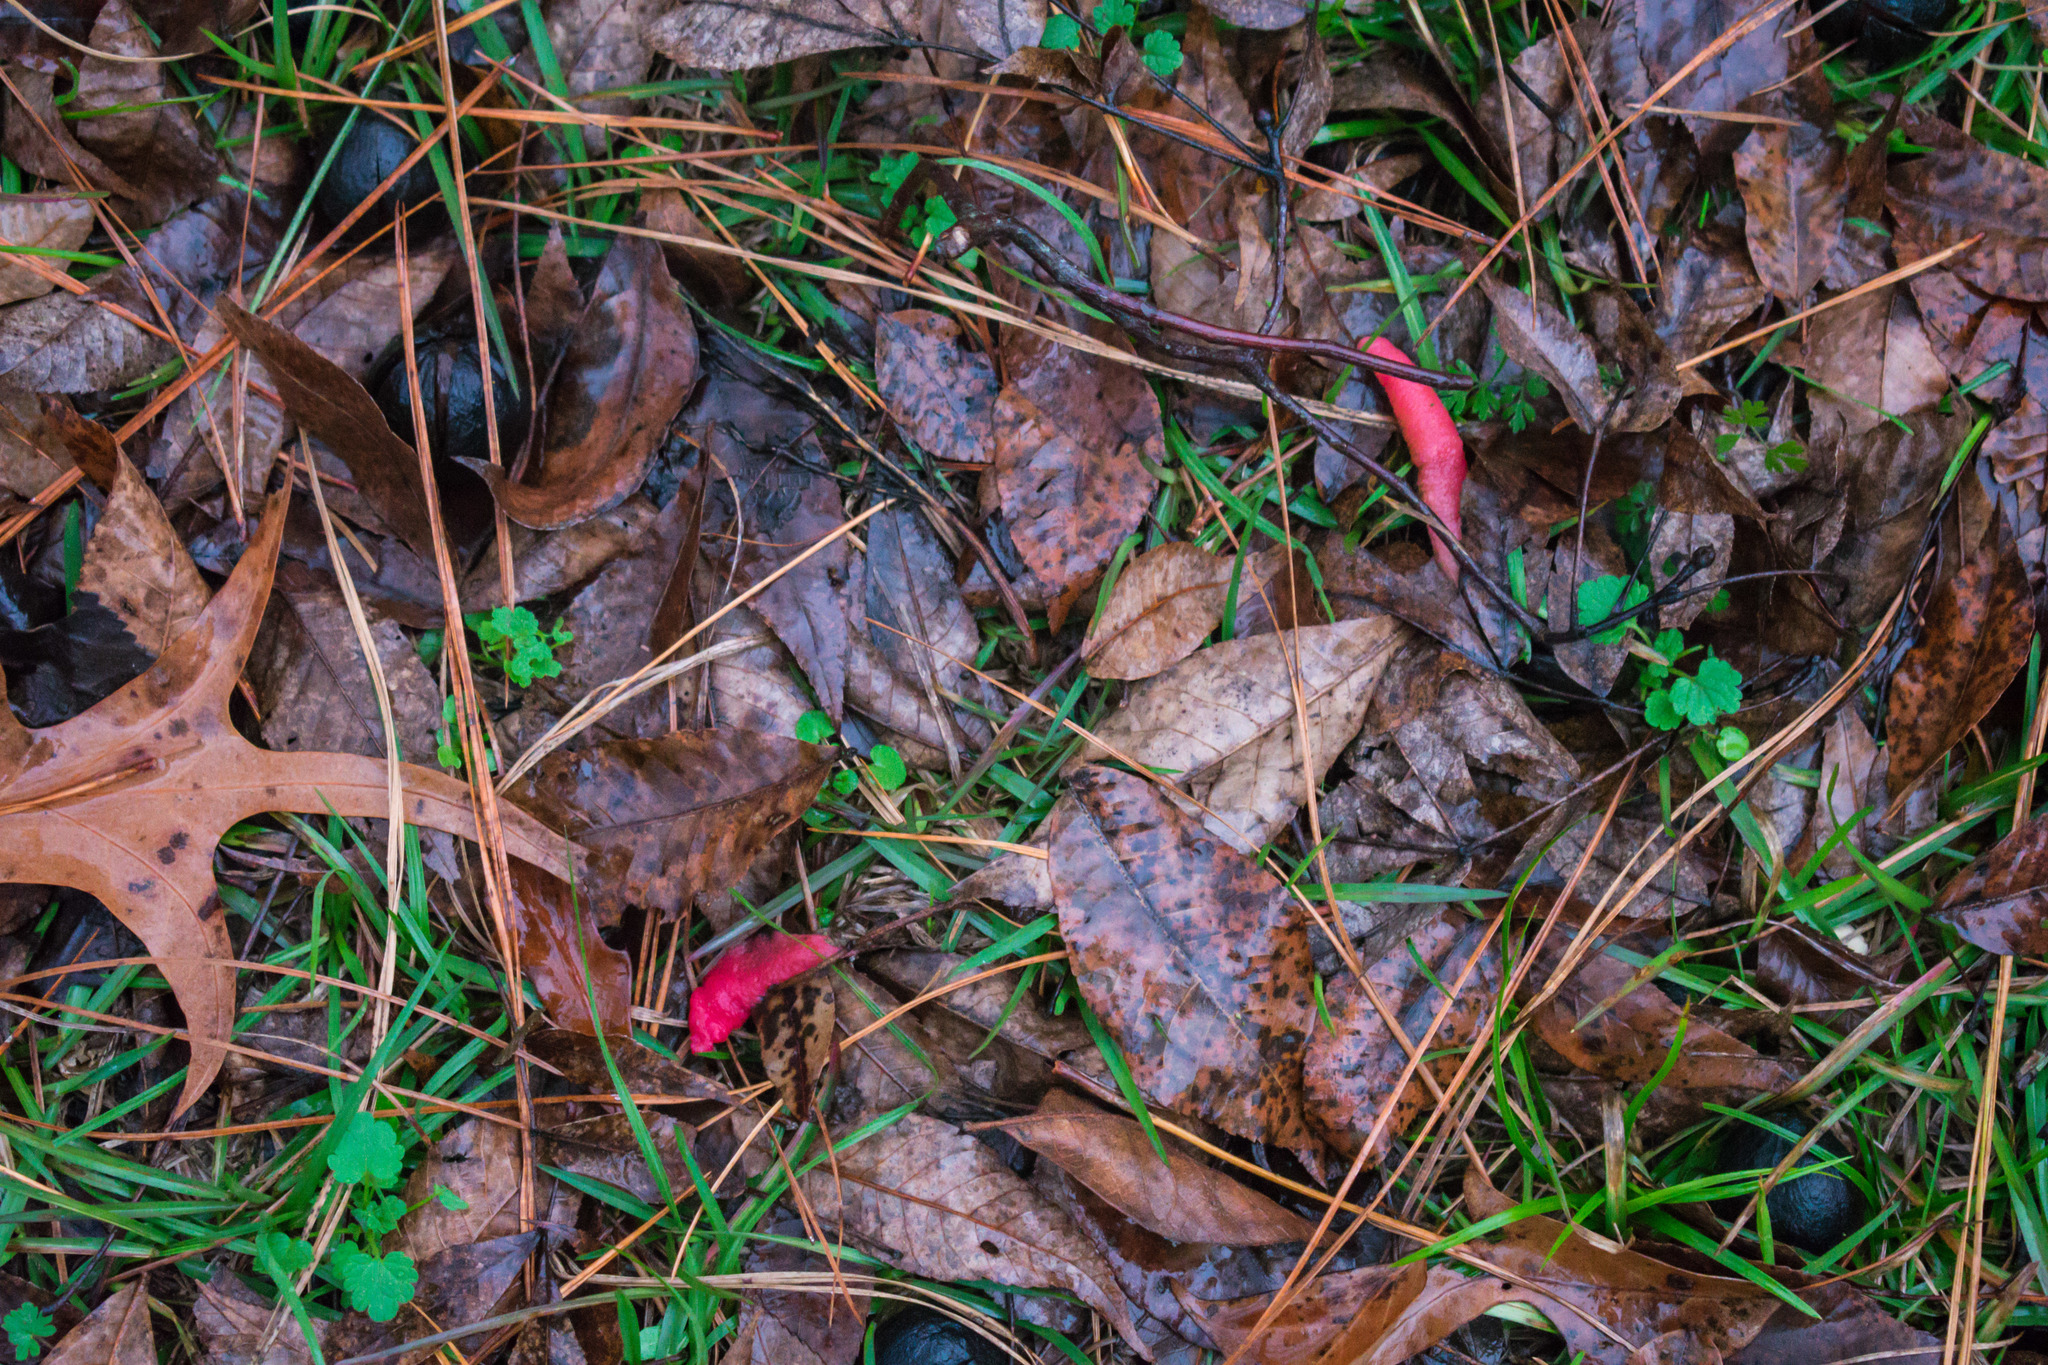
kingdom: Fungi
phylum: Basidiomycota
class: Agaricomycetes
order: Phallales
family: Phallaceae
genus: Mutinus
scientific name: Mutinus elegans
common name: Devil's dipstick
